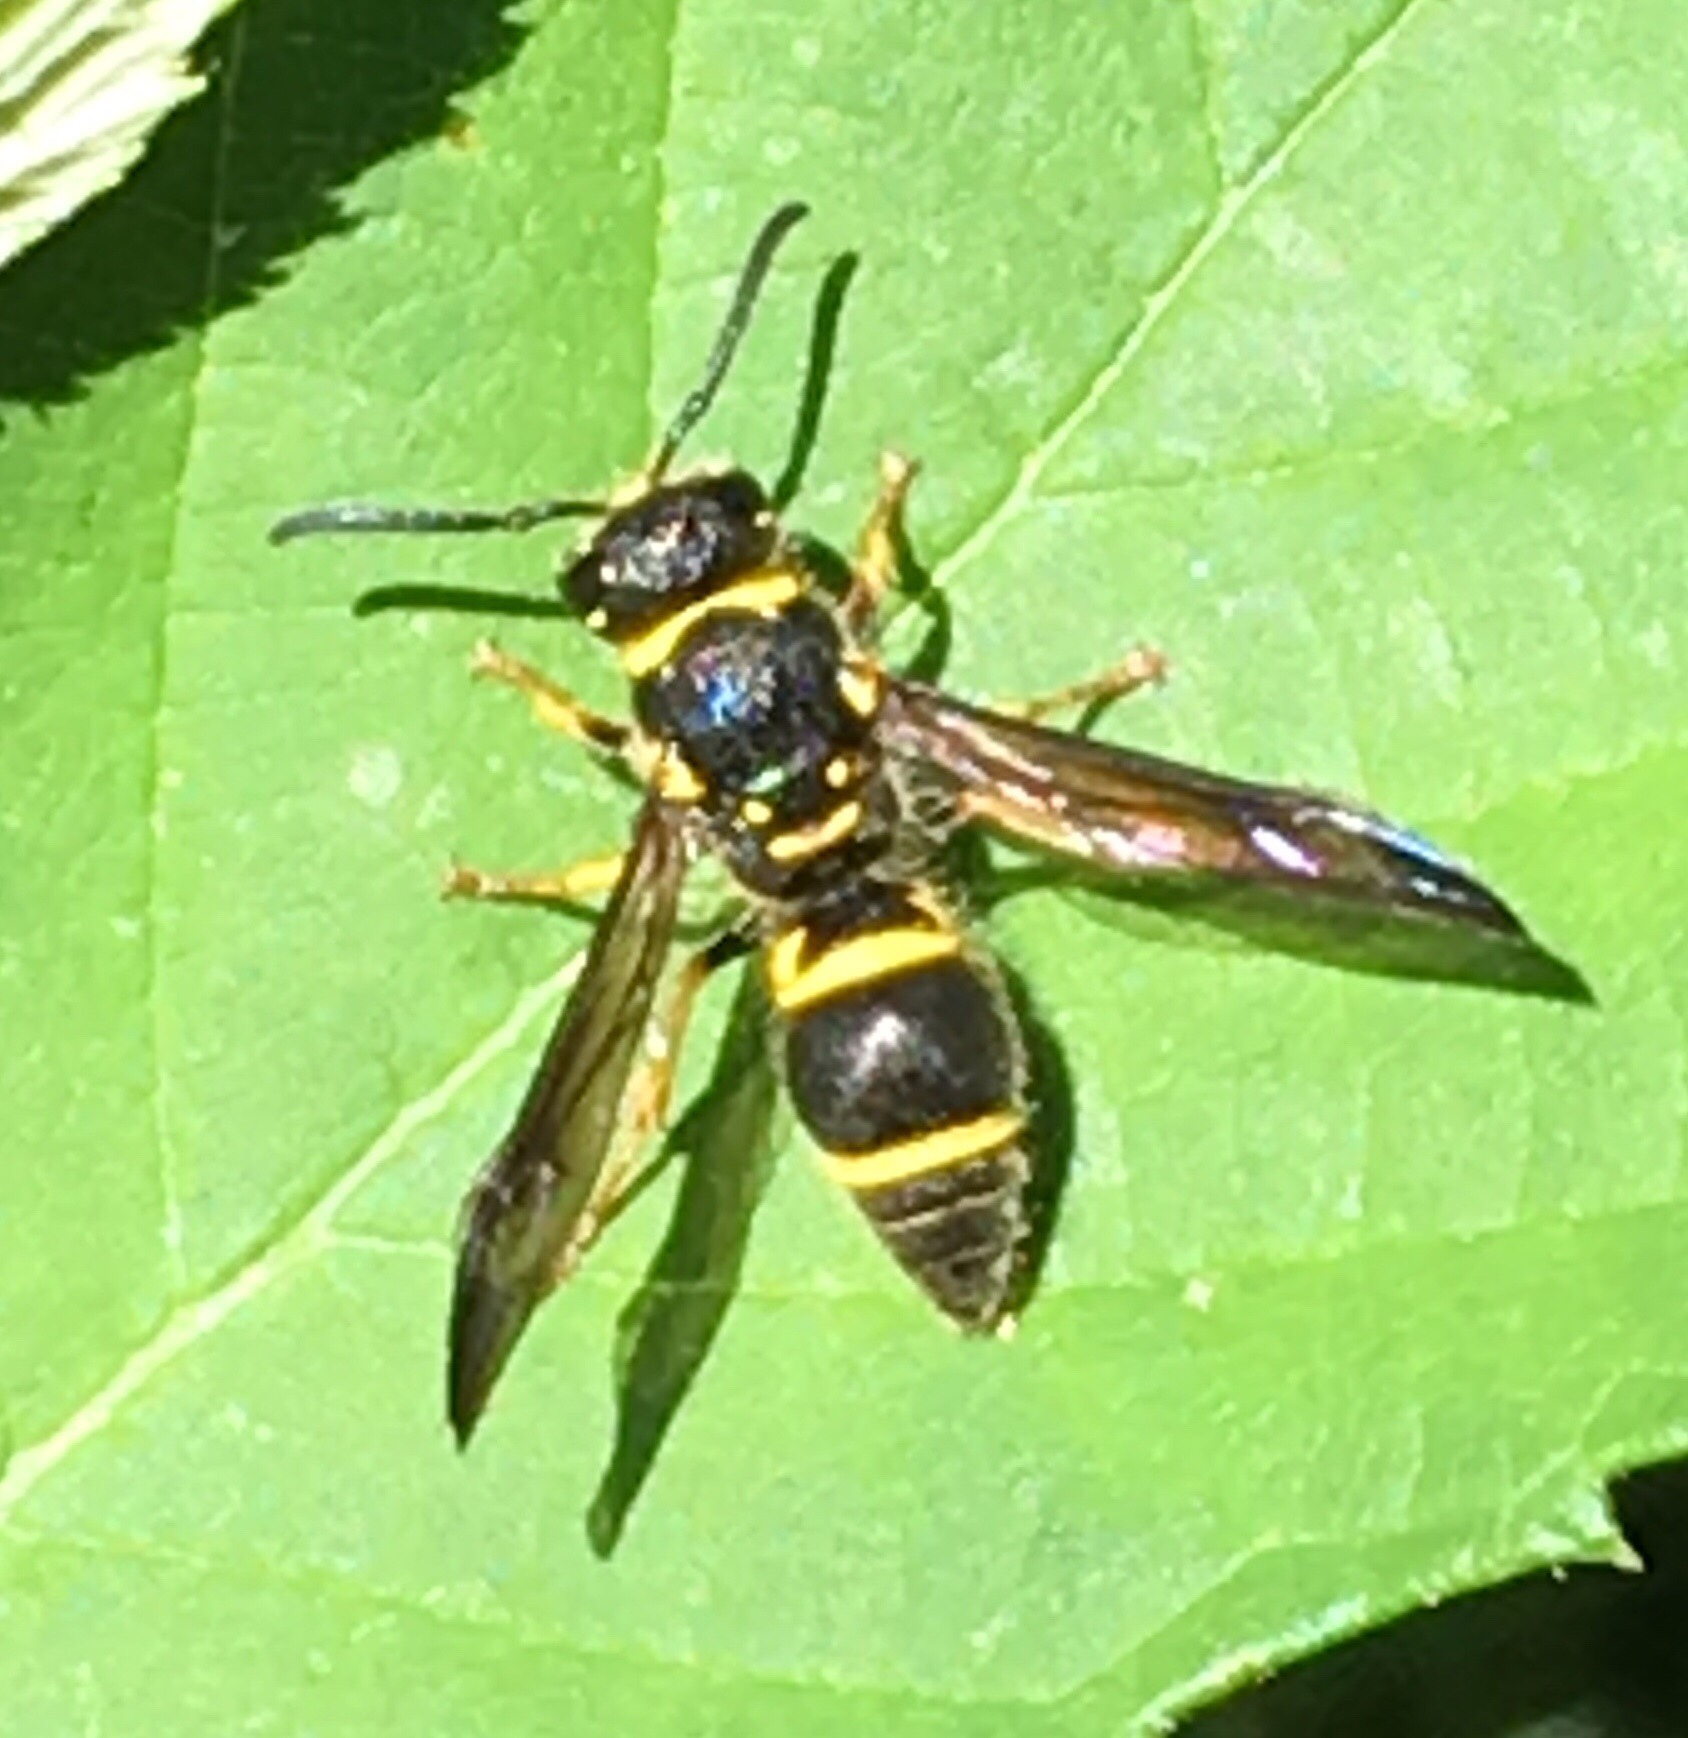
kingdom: Animalia
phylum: Arthropoda
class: Insecta
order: Hymenoptera
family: Vespidae
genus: Ancistrocerus
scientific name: Ancistrocerus campestris
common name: Smiling mason wasp
